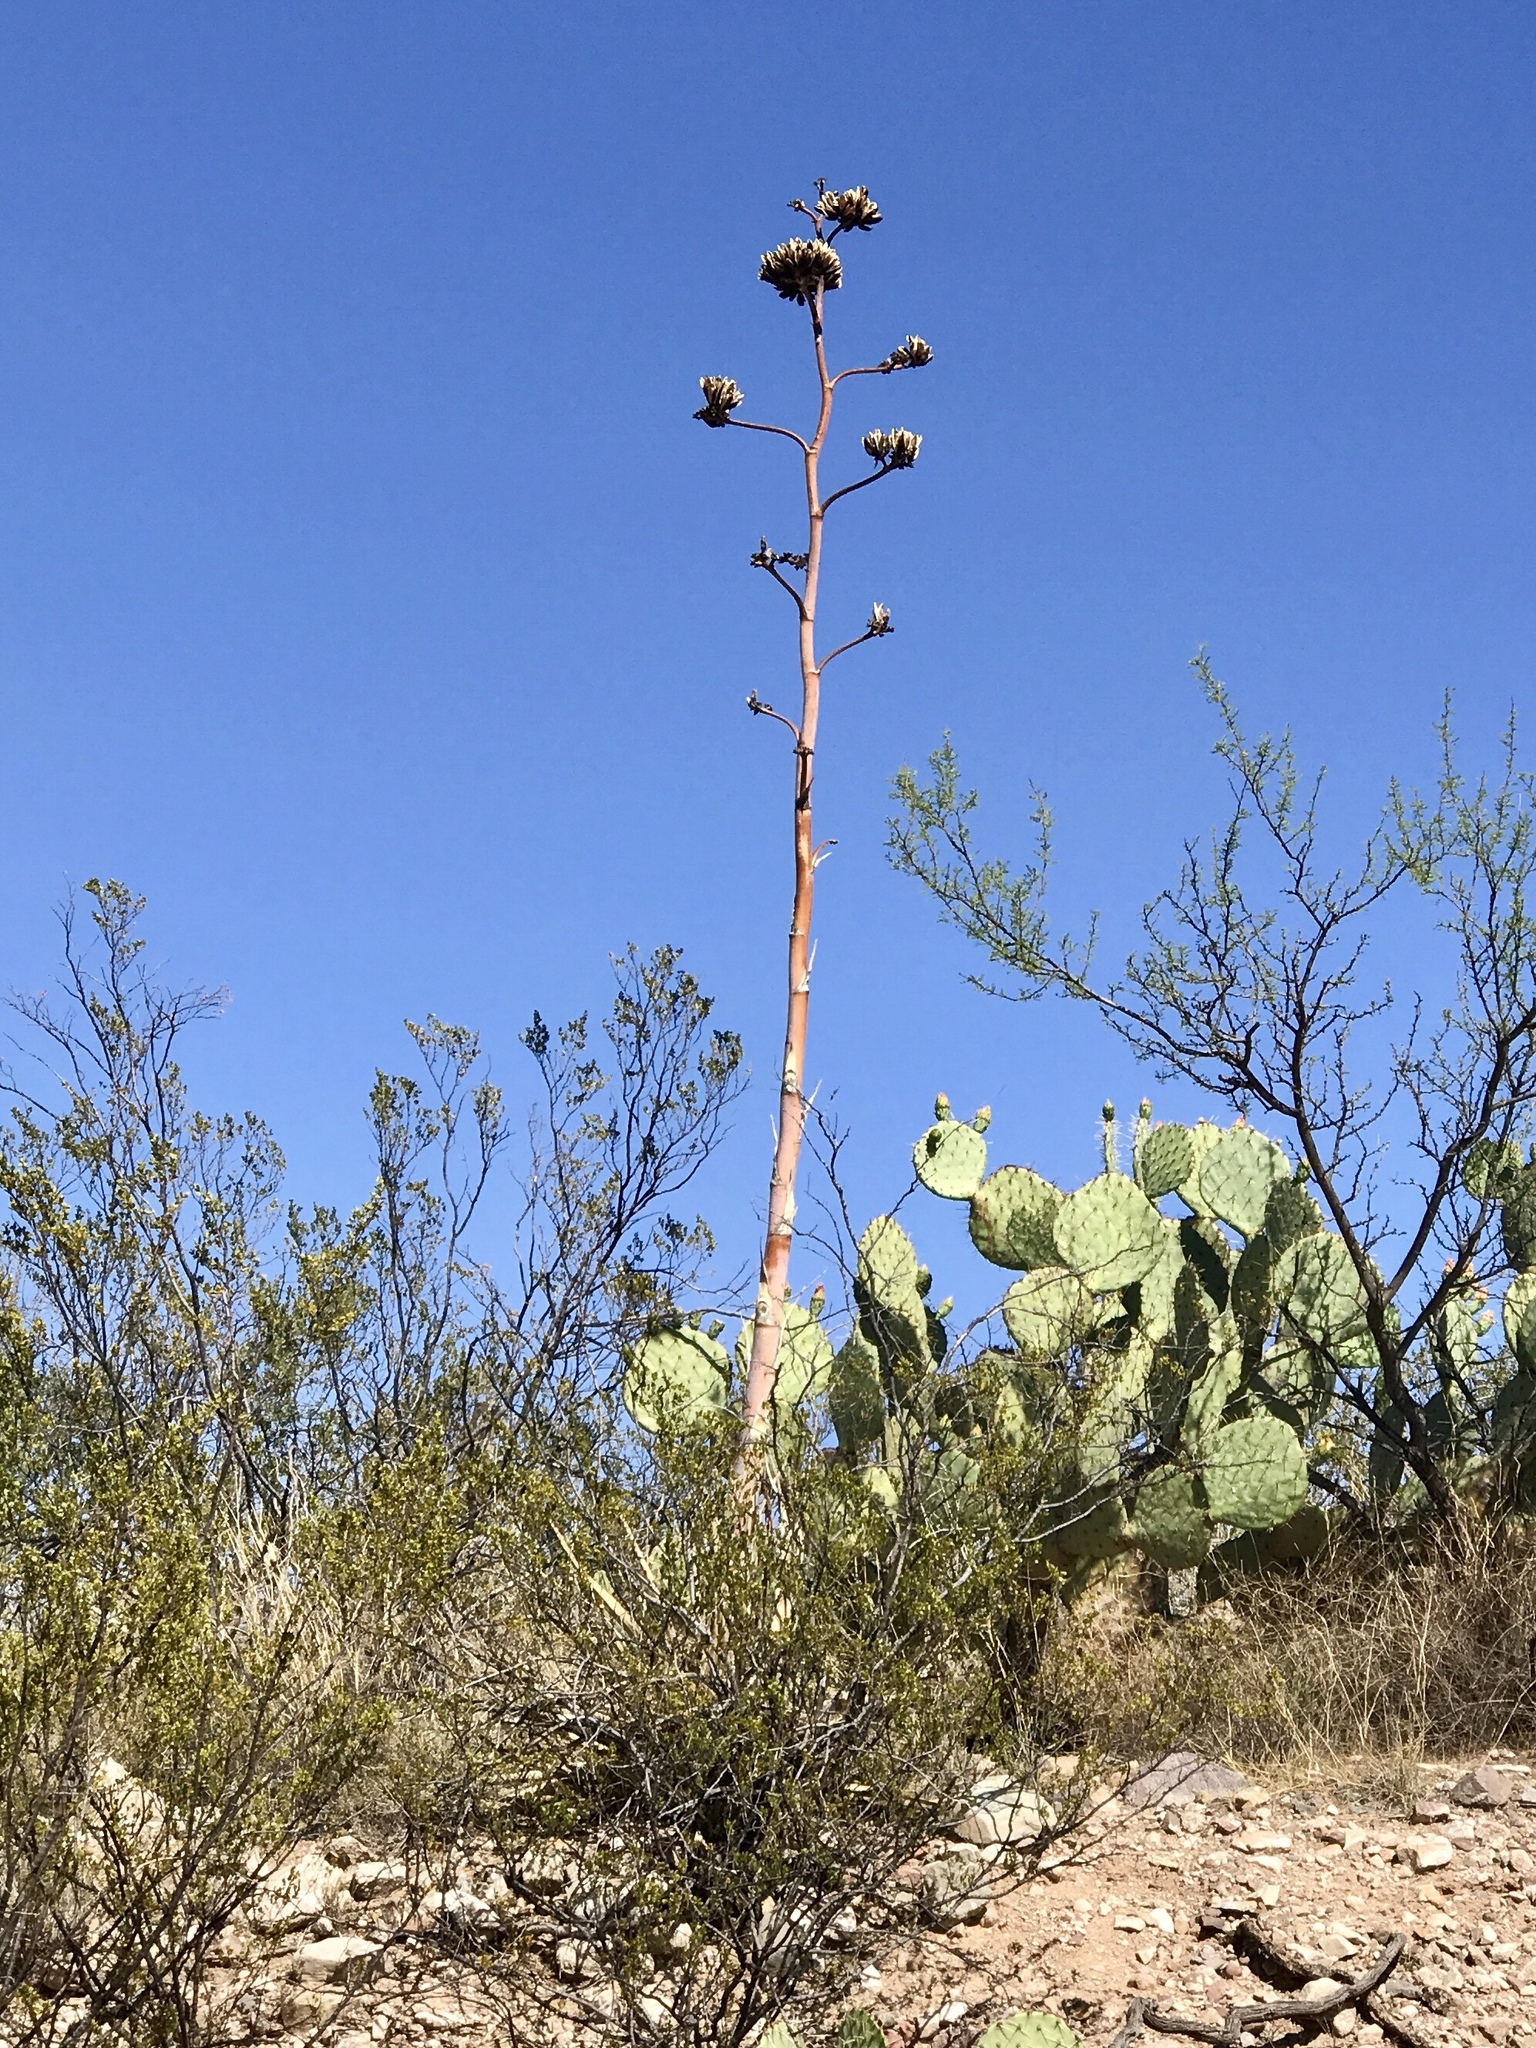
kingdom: Plantae
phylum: Tracheophyta
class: Liliopsida
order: Asparagales
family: Asparagaceae
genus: Agave
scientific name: Agave palmeri
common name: Palmer agave
